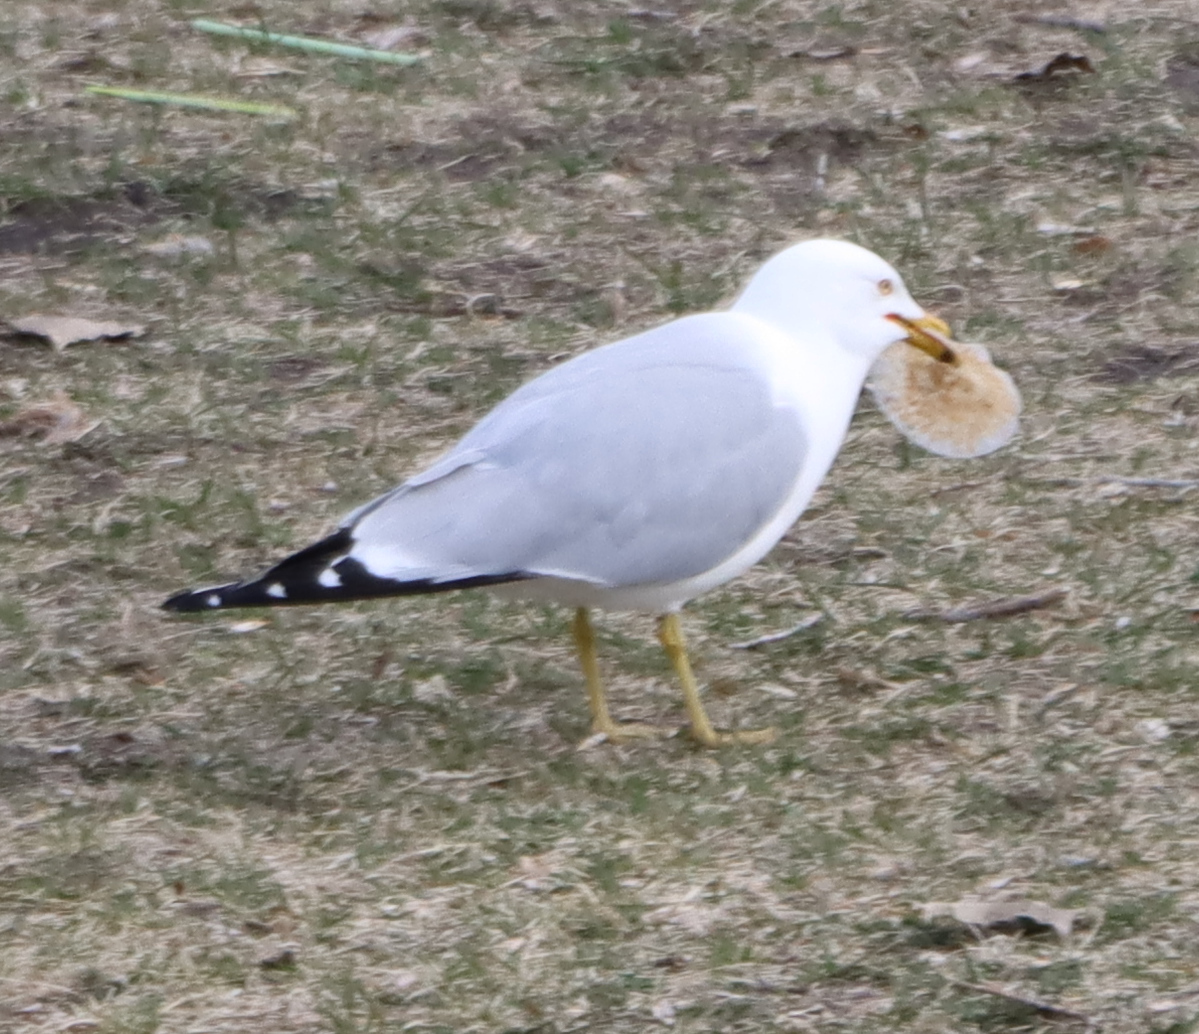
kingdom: Animalia
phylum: Chordata
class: Aves
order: Charadriiformes
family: Laridae
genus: Larus
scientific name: Larus delawarensis
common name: Ring-billed gull
